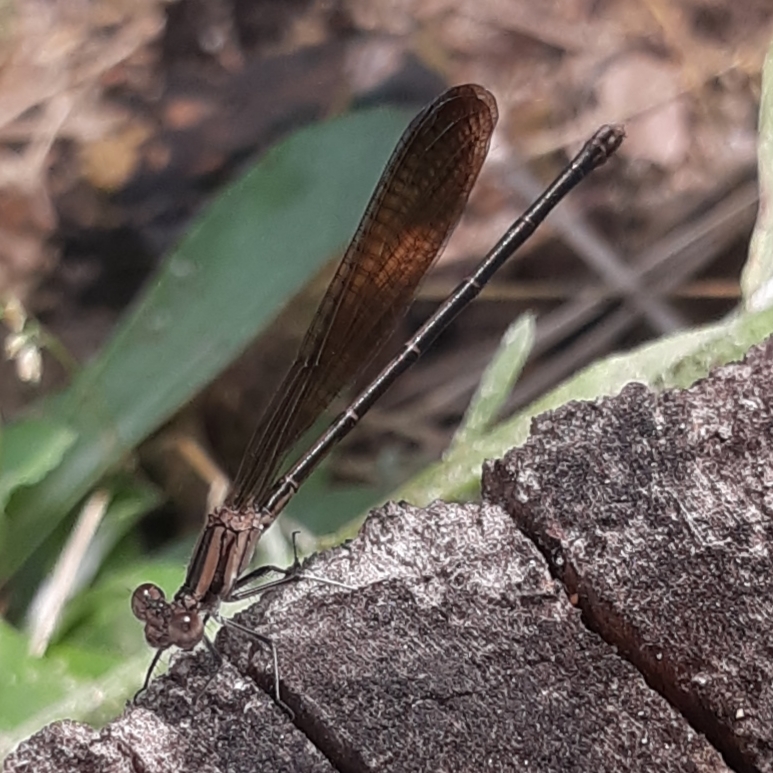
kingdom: Animalia
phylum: Arthropoda
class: Insecta
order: Odonata
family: Coenagrionidae
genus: Argia
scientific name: Argia fumipennis
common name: Variable dancer
